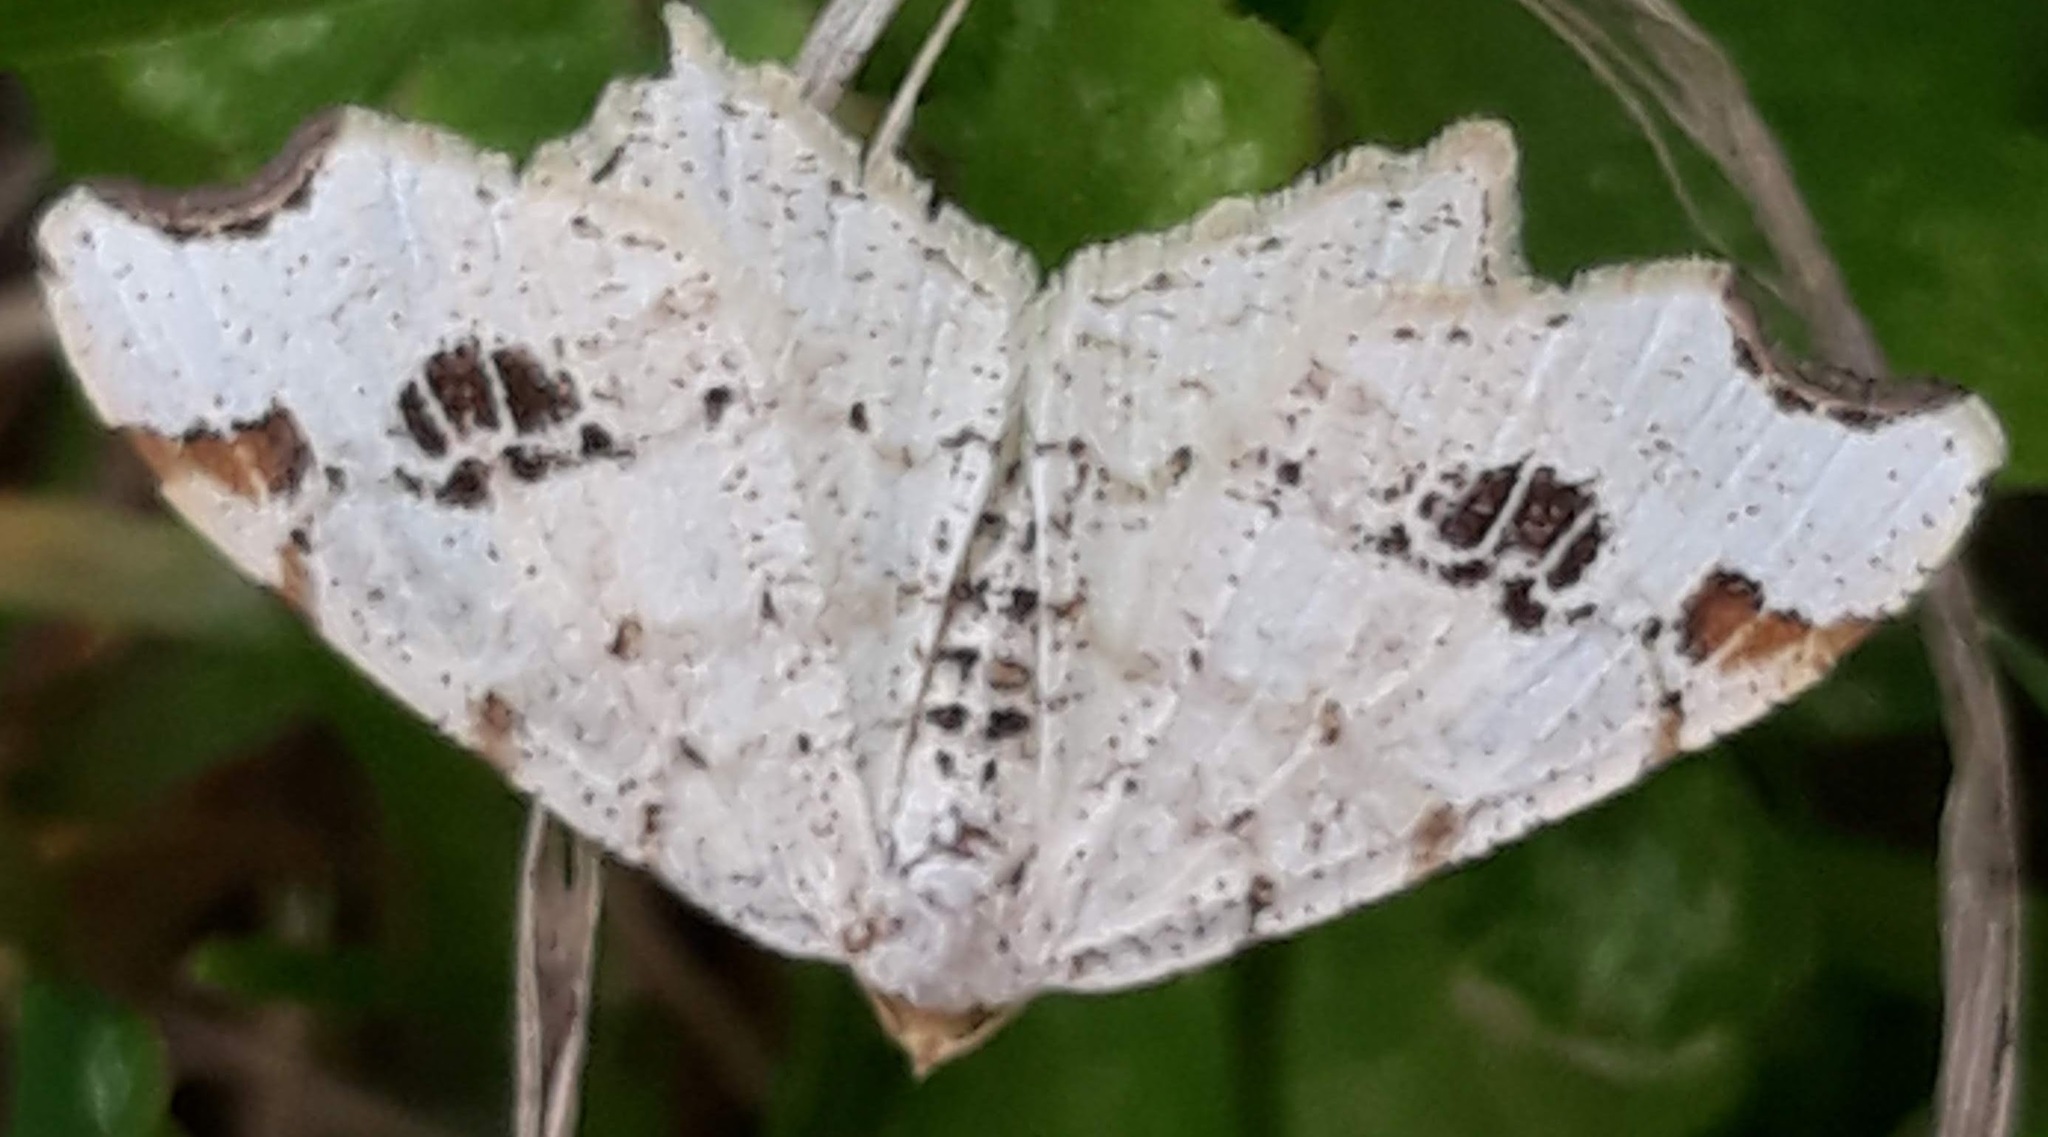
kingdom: Animalia
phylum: Arthropoda
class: Insecta
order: Lepidoptera
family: Geometridae
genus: Macaria
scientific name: Macaria aemulataria
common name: Common angle
